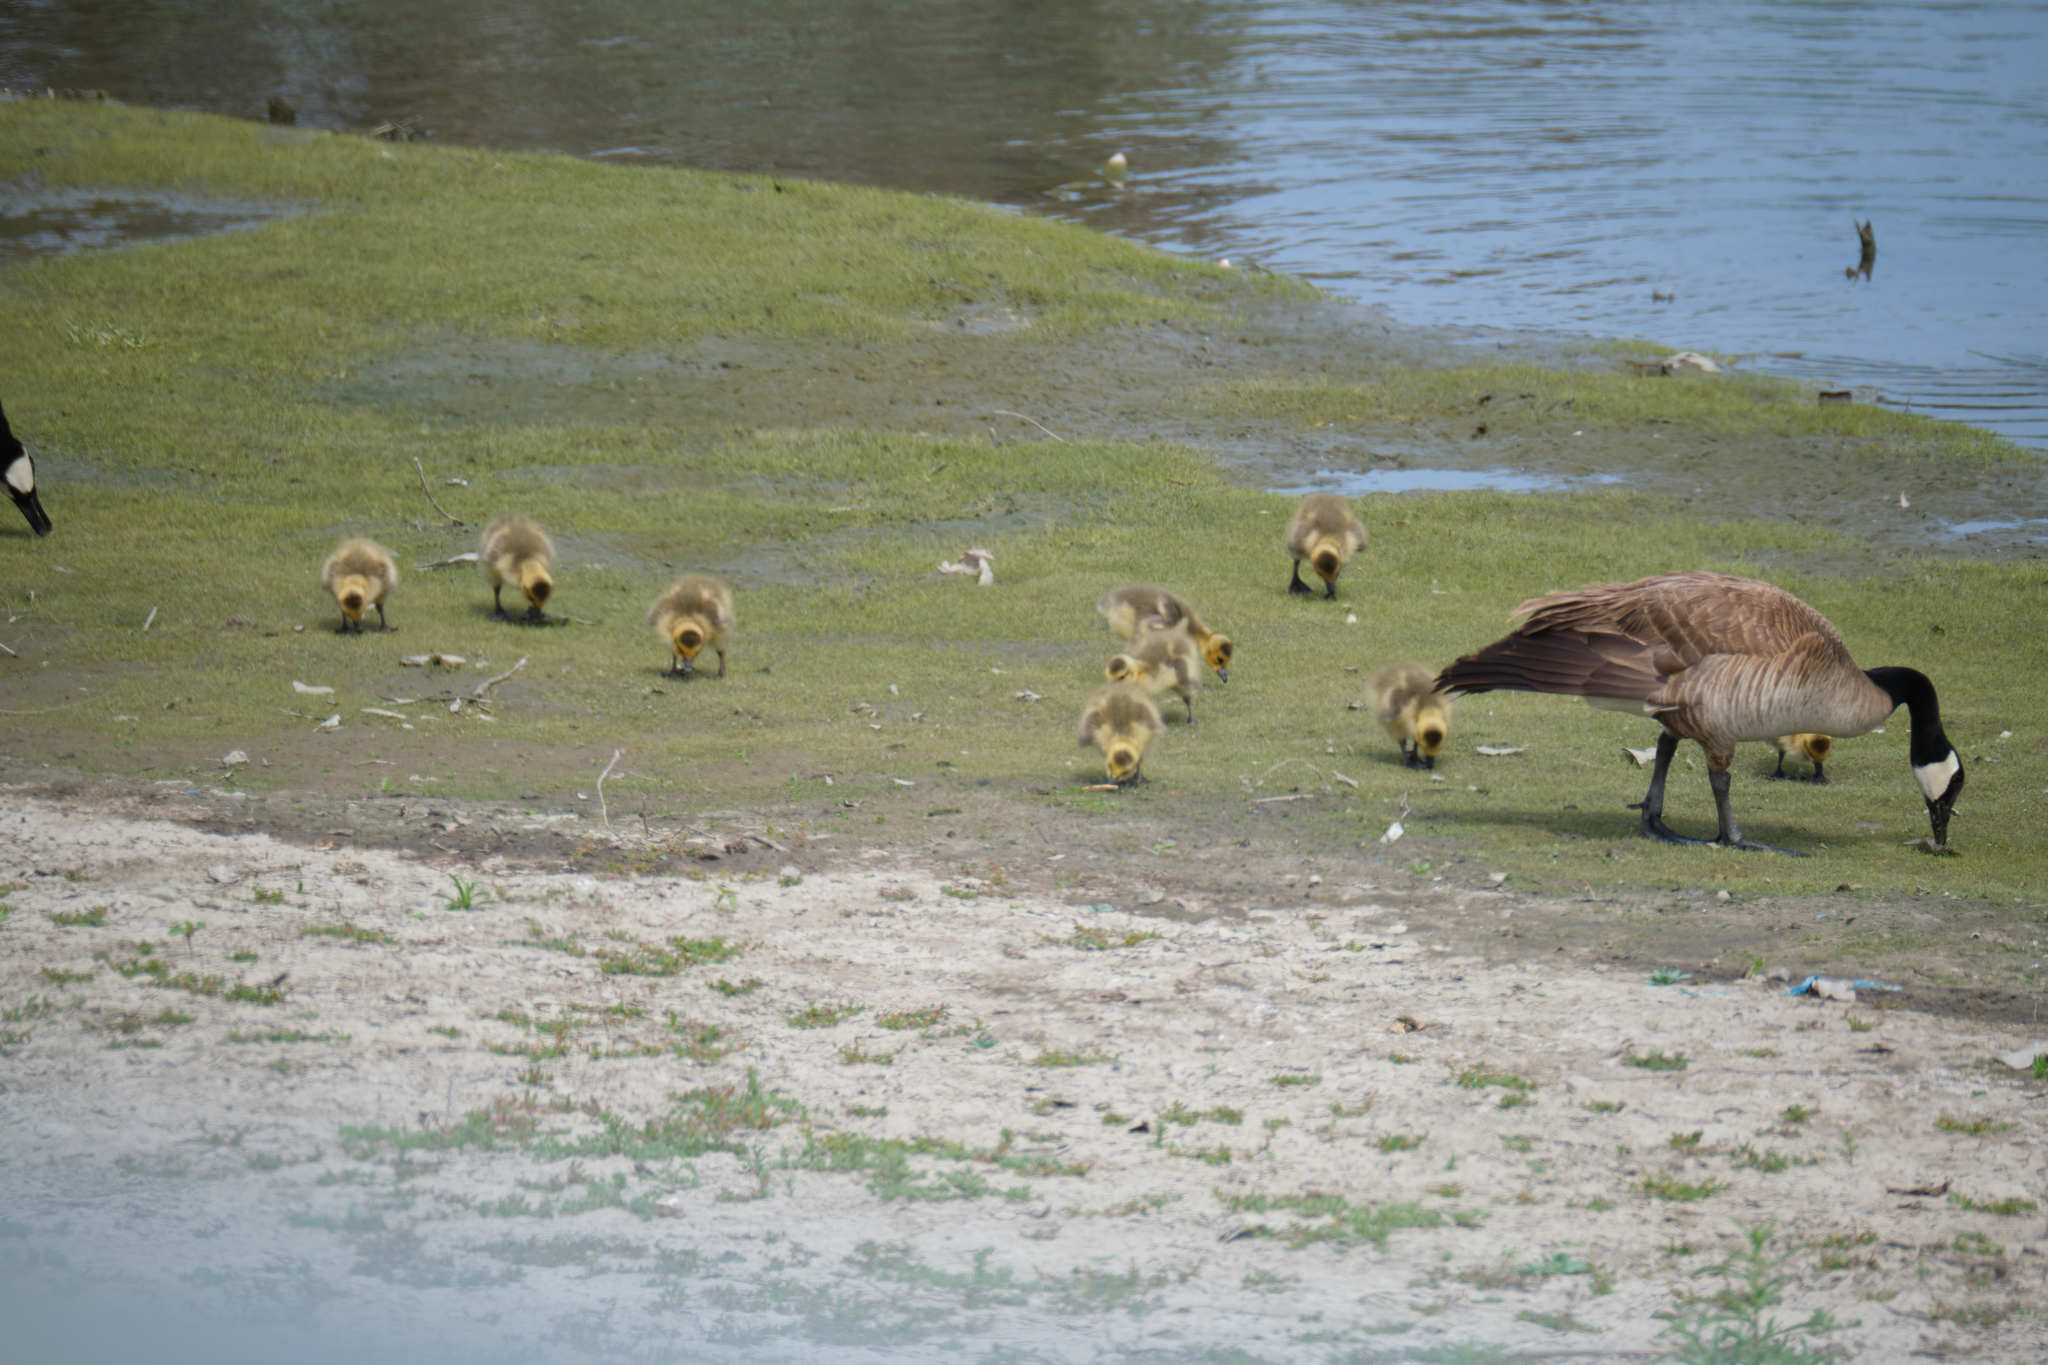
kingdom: Animalia
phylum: Chordata
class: Aves
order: Anseriformes
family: Anatidae
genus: Branta
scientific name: Branta canadensis
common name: Canada goose
